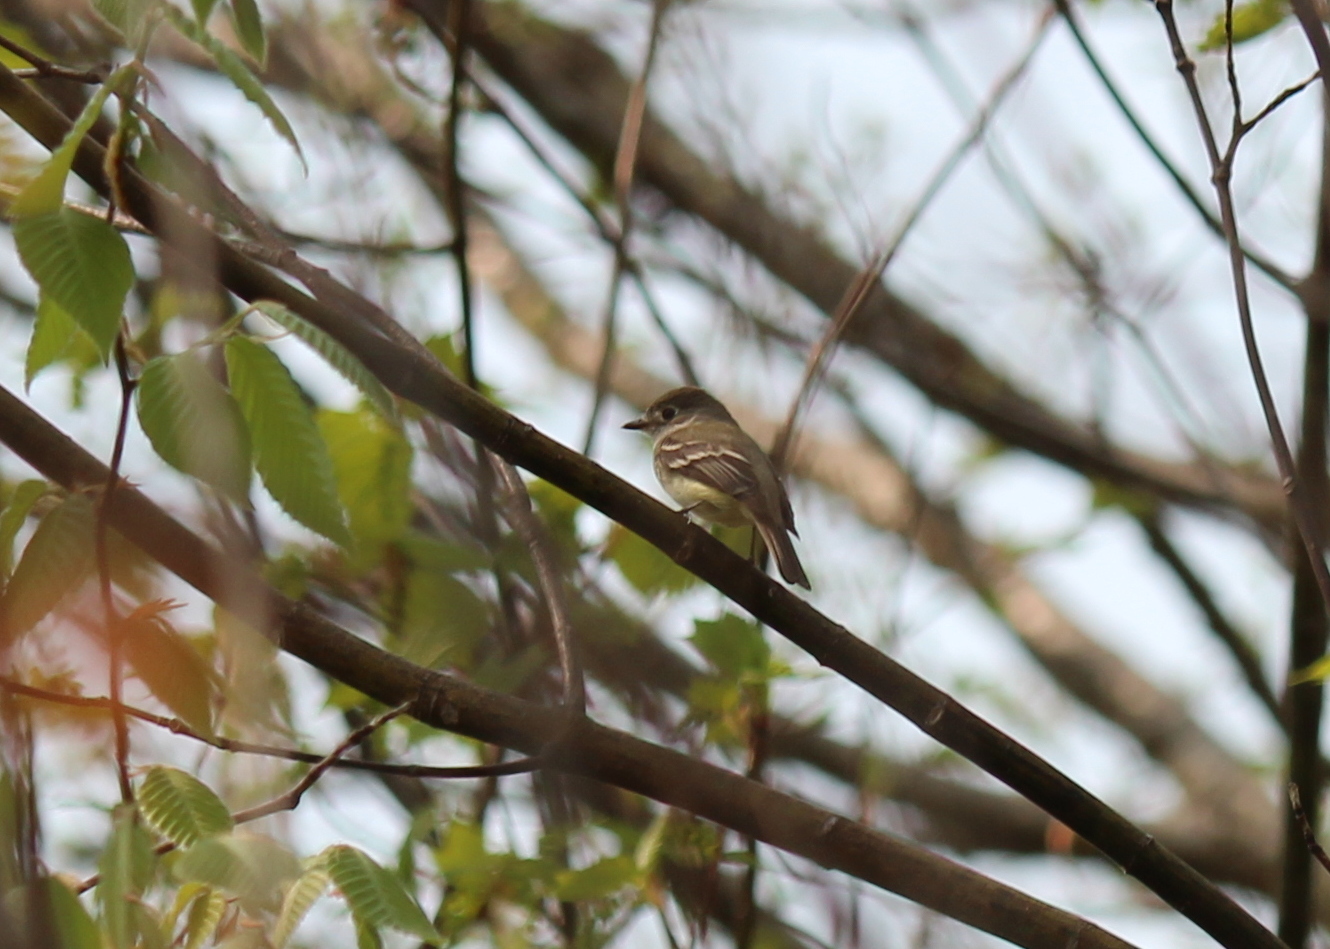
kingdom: Animalia
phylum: Chordata
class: Aves
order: Passeriformes
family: Tyrannidae
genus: Empidonax
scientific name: Empidonax minimus
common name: Least flycatcher
